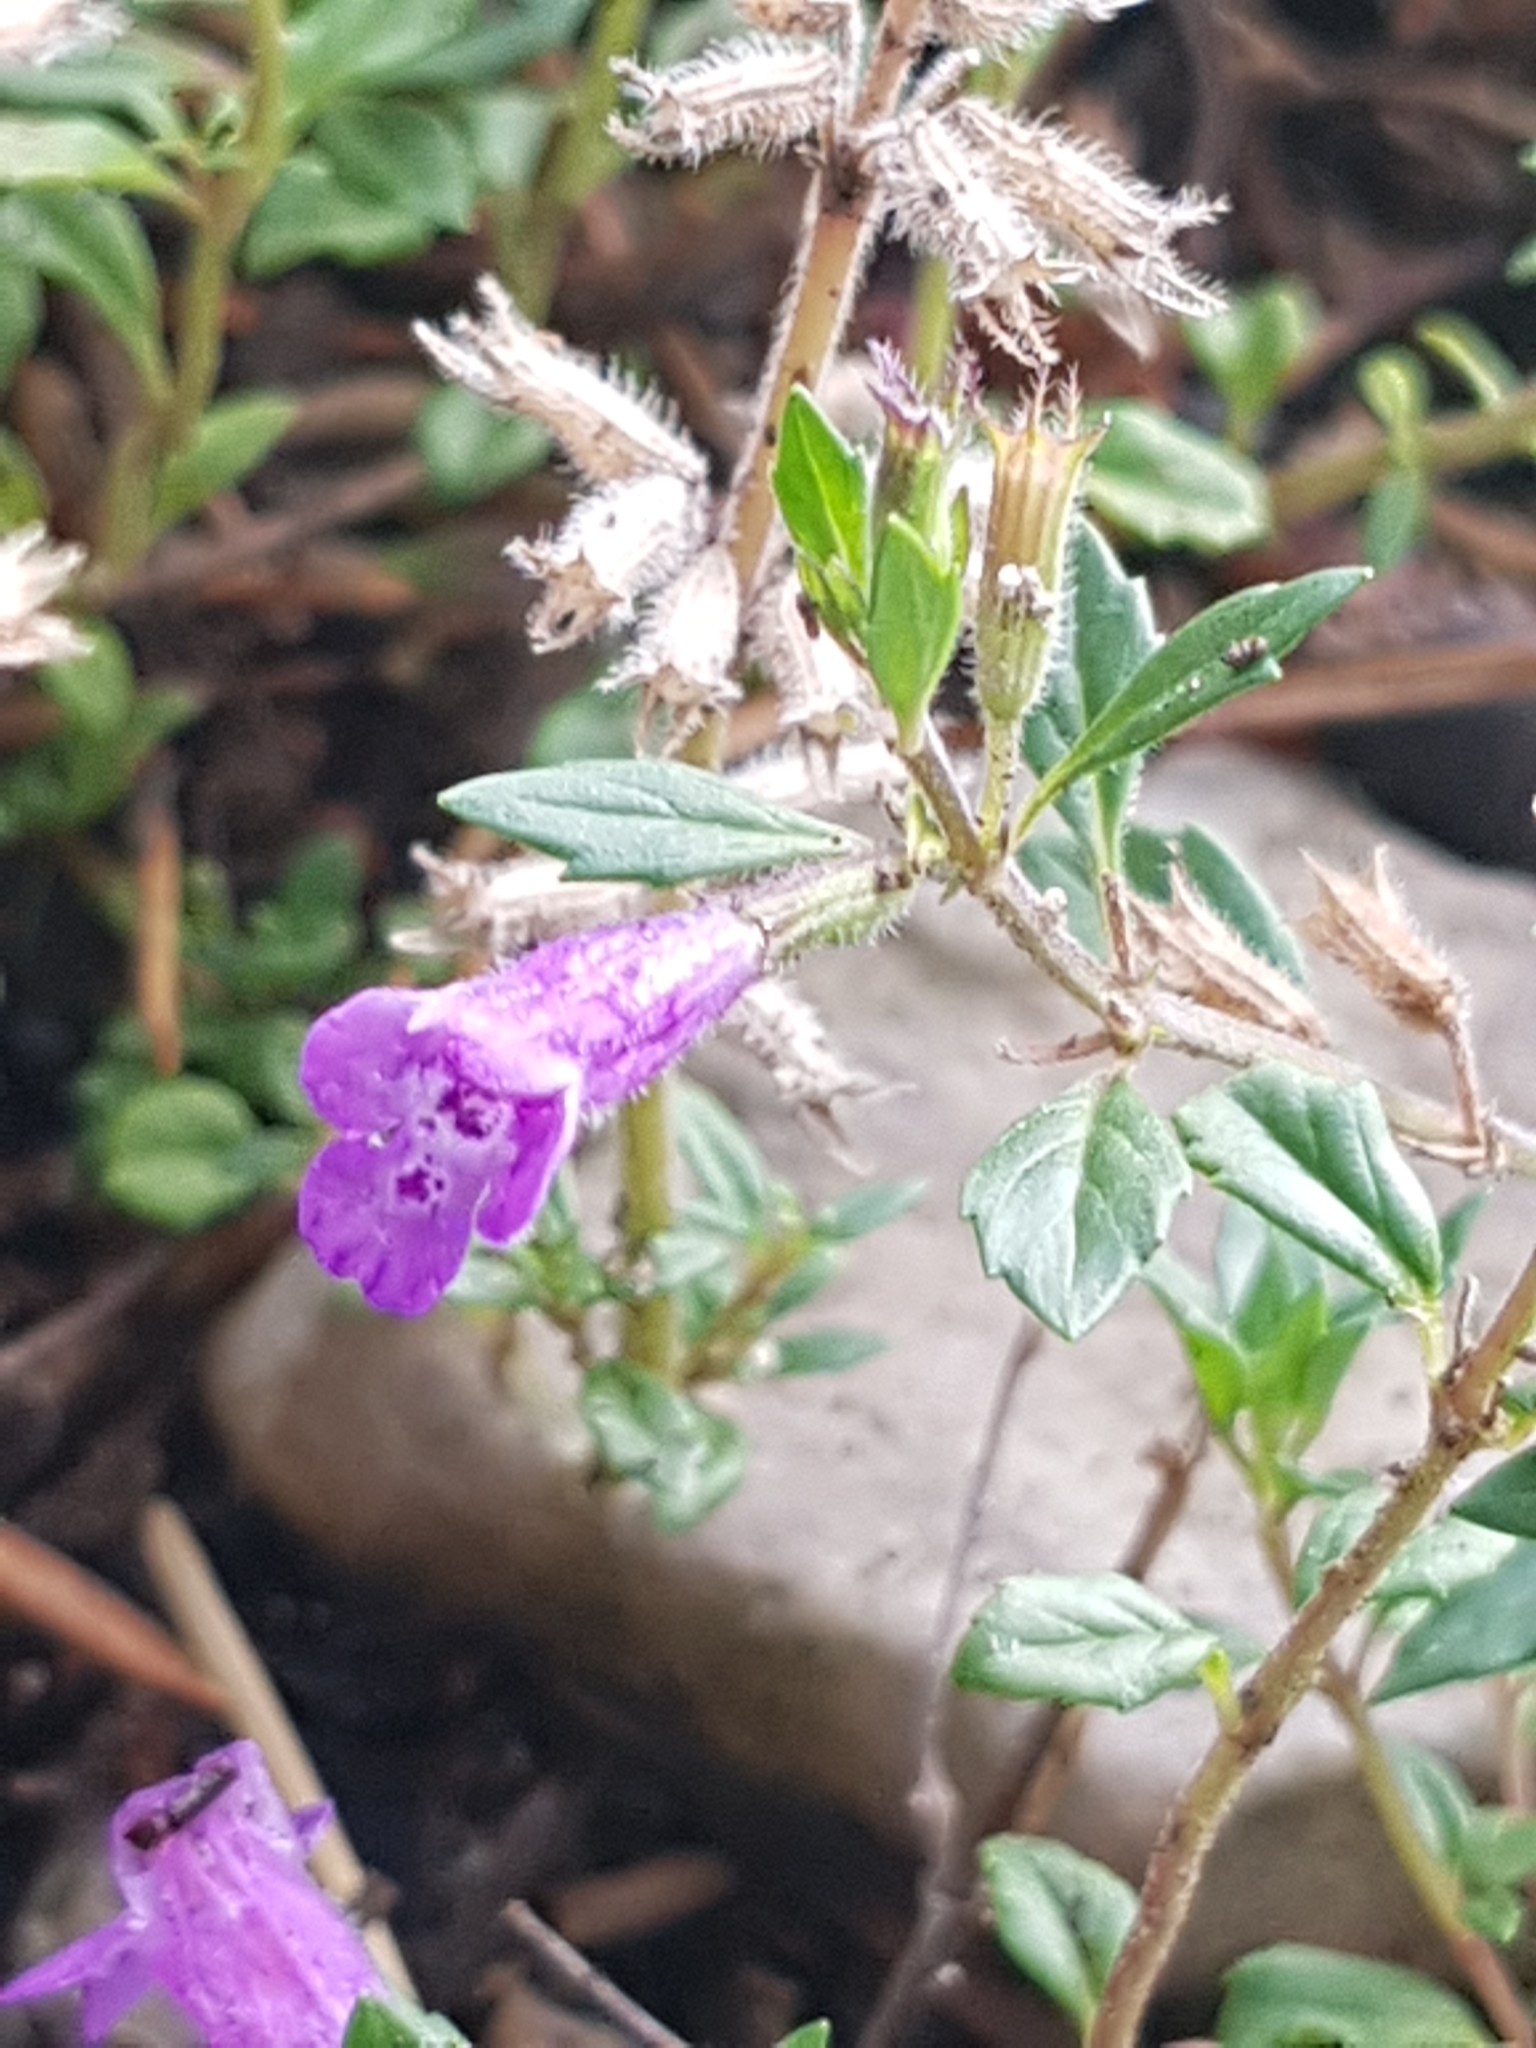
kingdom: Plantae
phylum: Tracheophyta
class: Magnoliopsida
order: Lamiales
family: Lamiaceae
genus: Clinopodium
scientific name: Clinopodium alpinum
